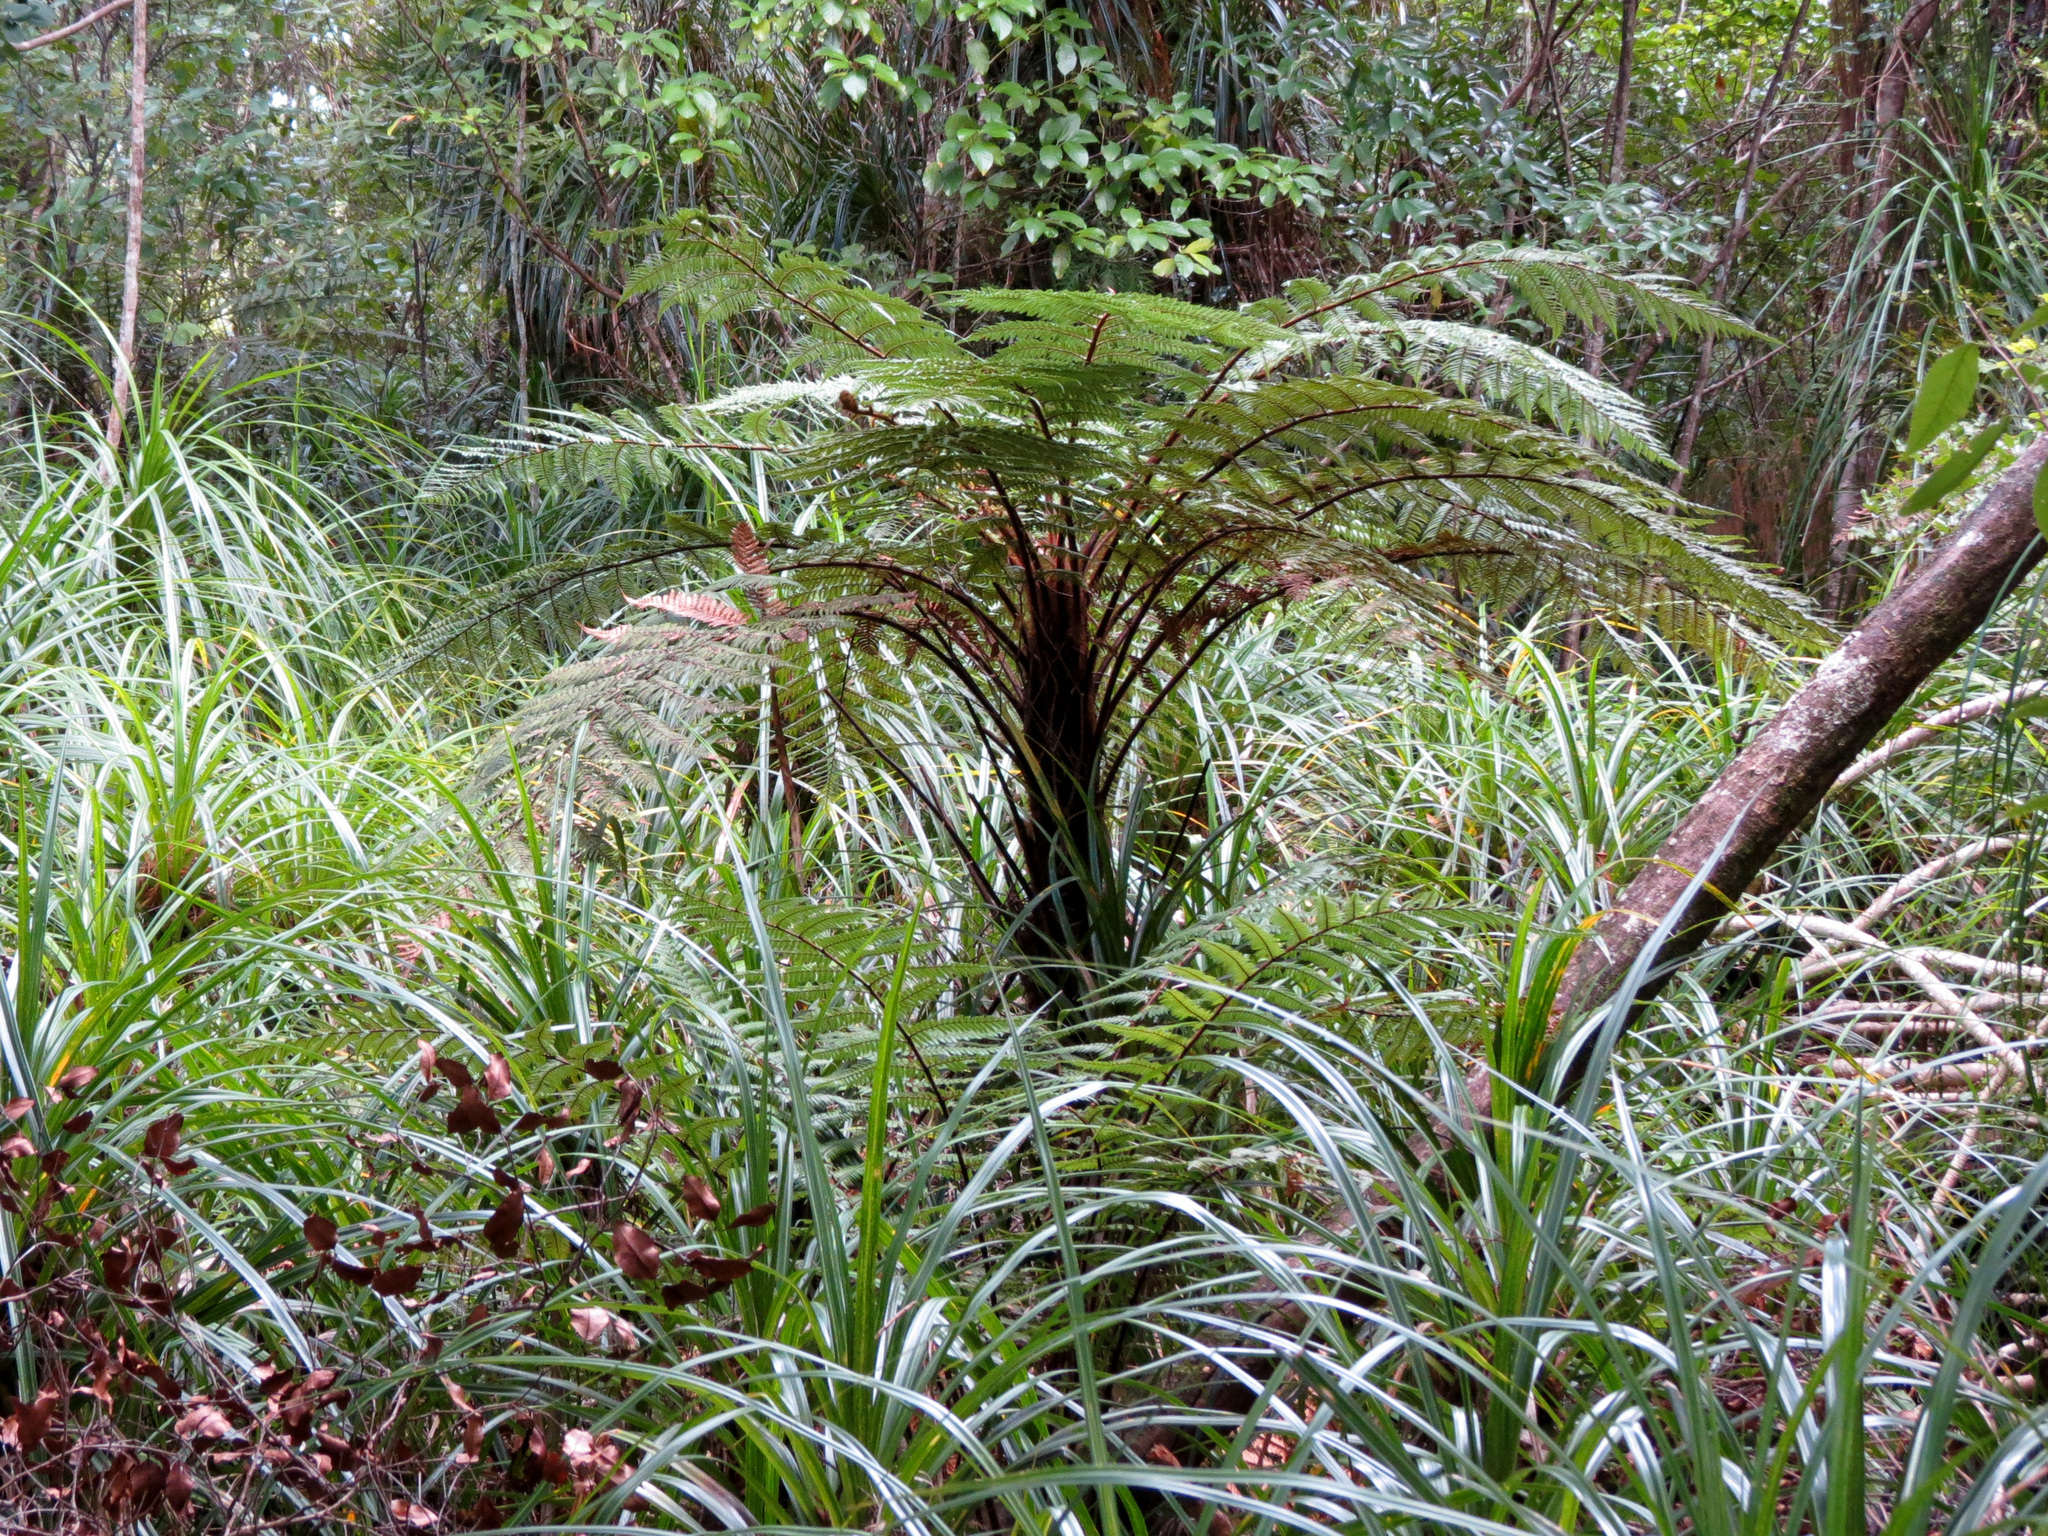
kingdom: Plantae
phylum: Tracheophyta
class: Polypodiopsida
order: Cyatheales
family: Dicksoniaceae
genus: Dicksonia
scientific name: Dicksonia squarrosa
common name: Hard treefern
